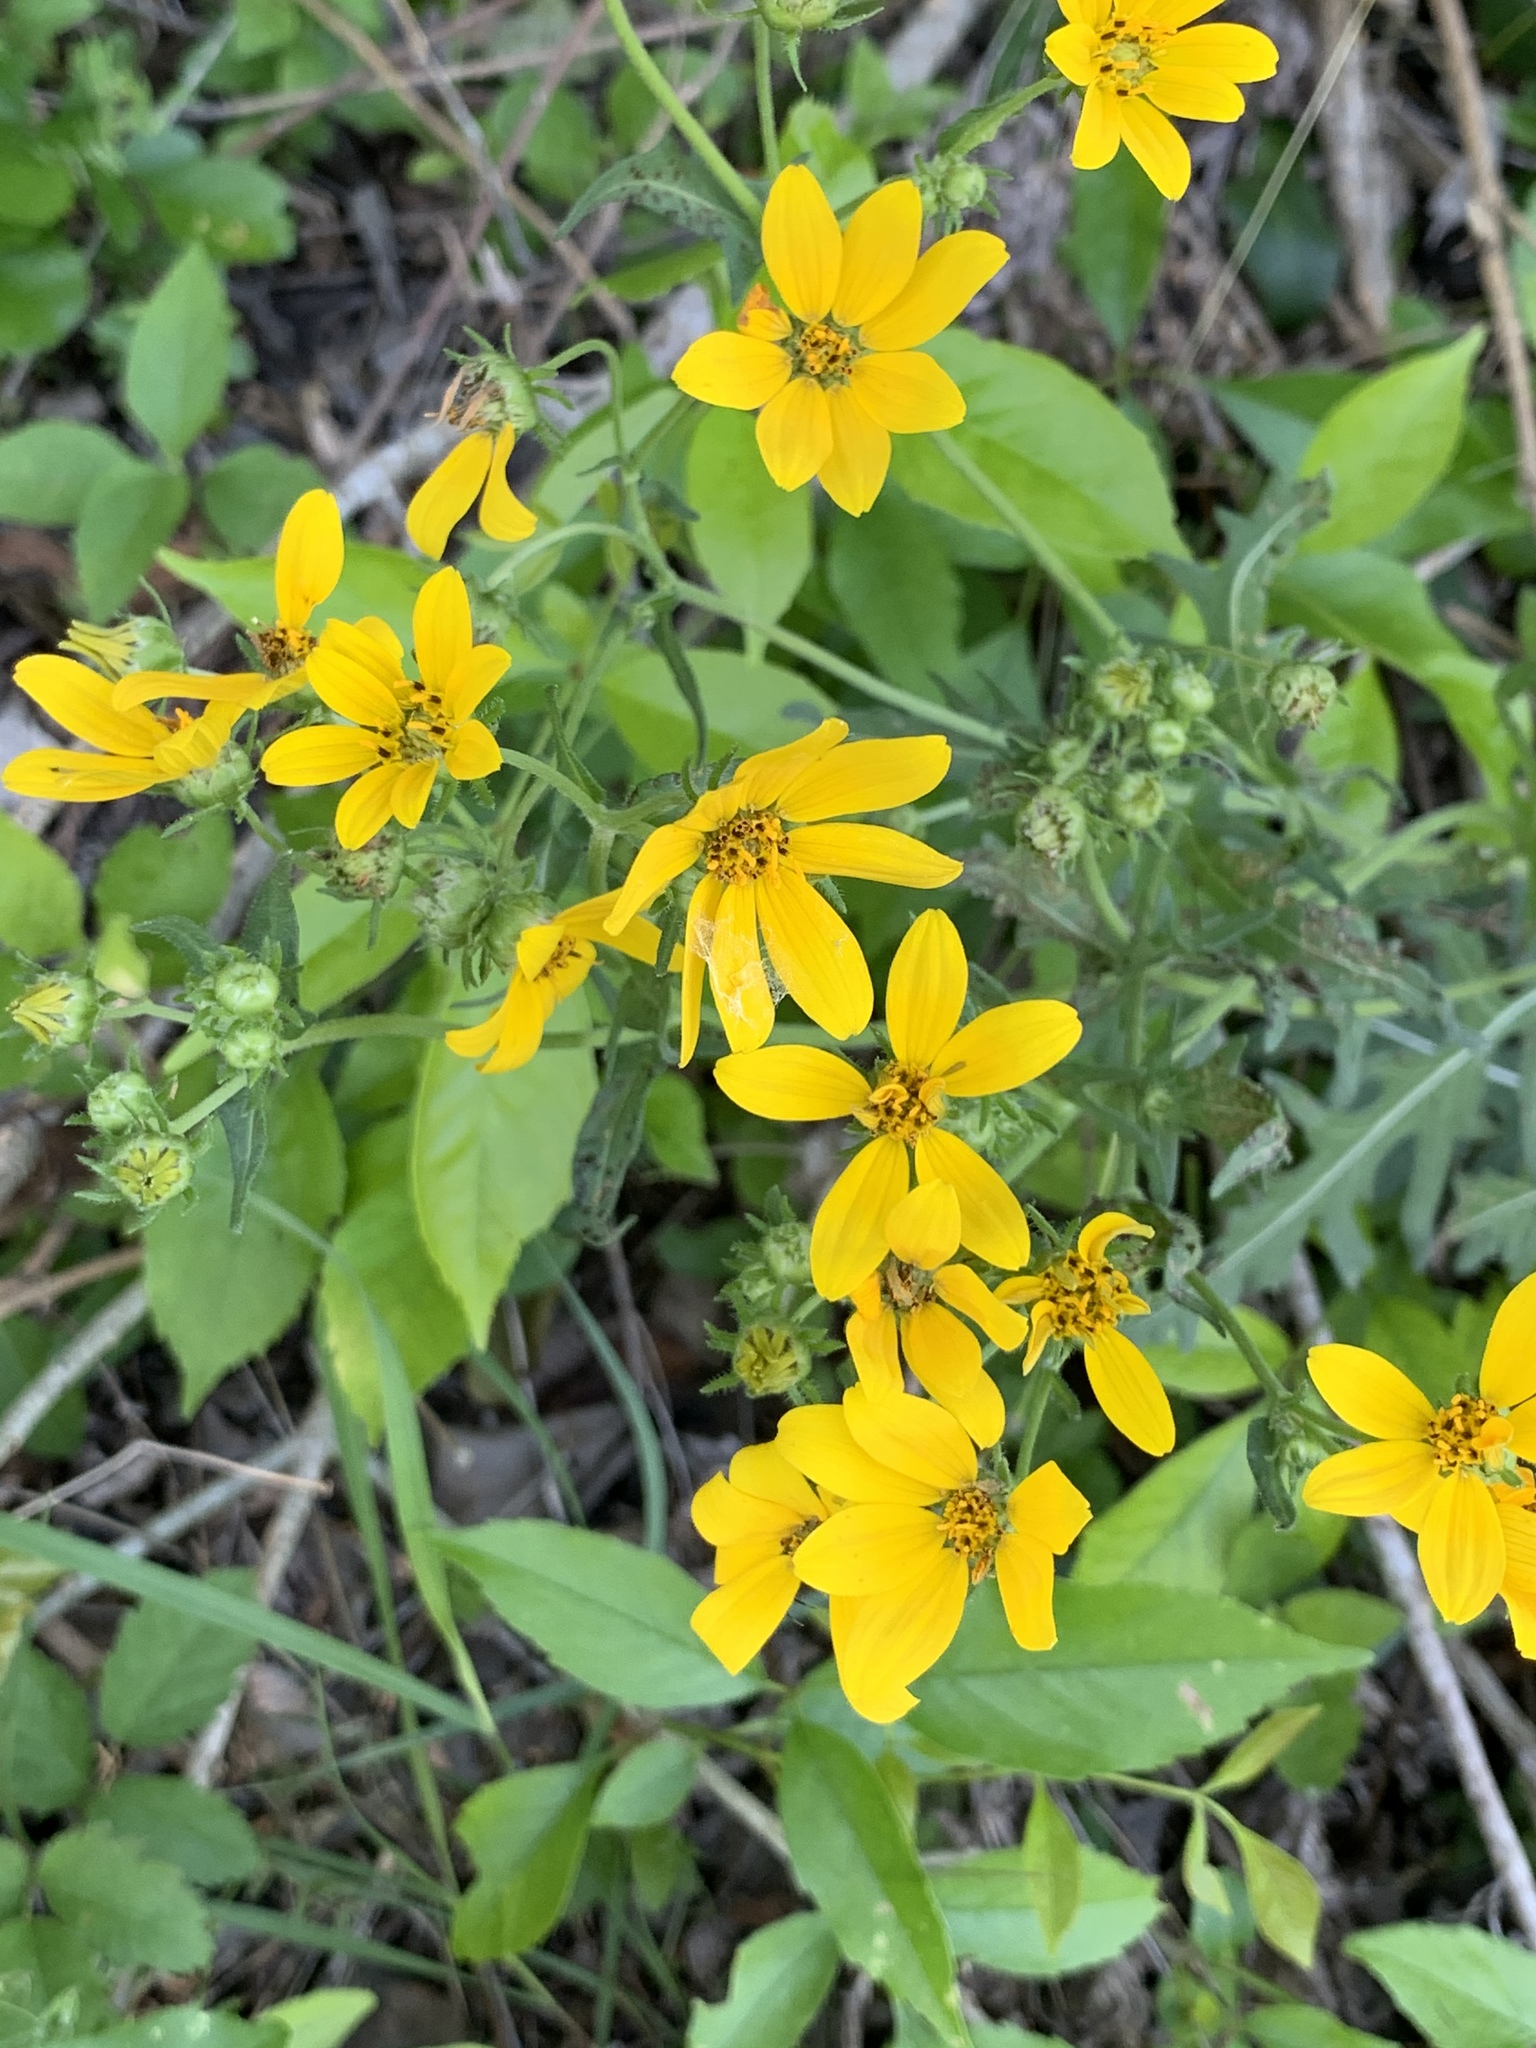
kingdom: Plantae
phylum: Tracheophyta
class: Magnoliopsida
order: Asterales
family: Asteraceae
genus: Engelmannia
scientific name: Engelmannia peristenia
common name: Engelmann's daisy
